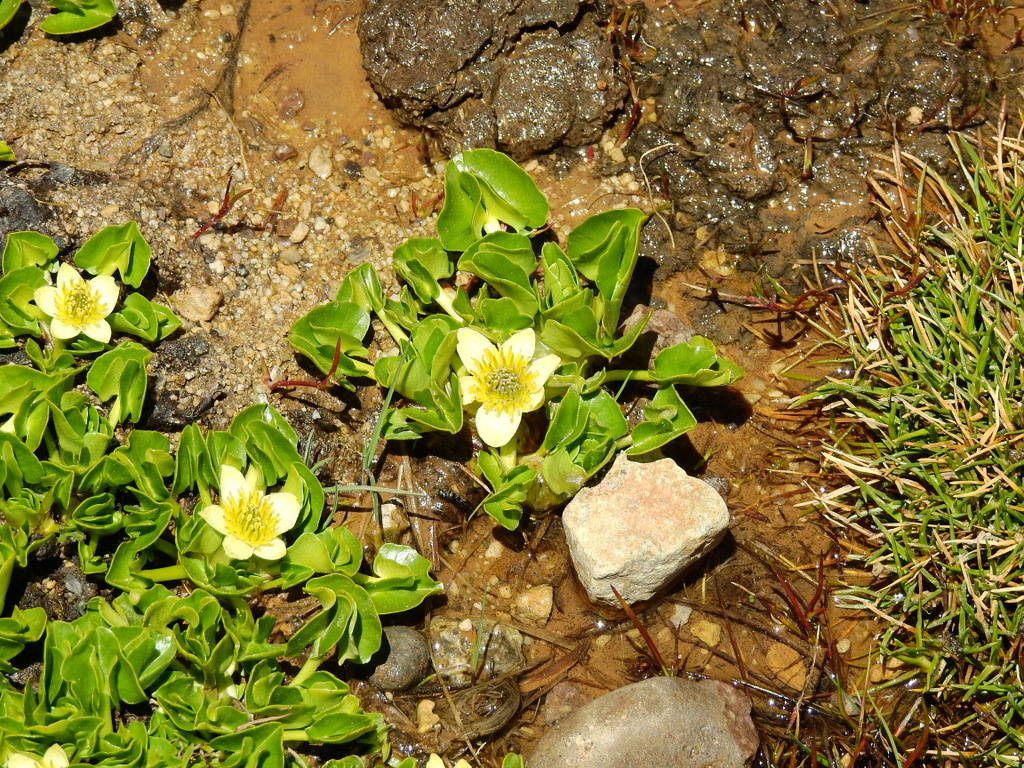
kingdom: Plantae
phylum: Tracheophyta
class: Magnoliopsida
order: Ranunculales
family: Ranunculaceae
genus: Caltha
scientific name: Caltha sagittata
